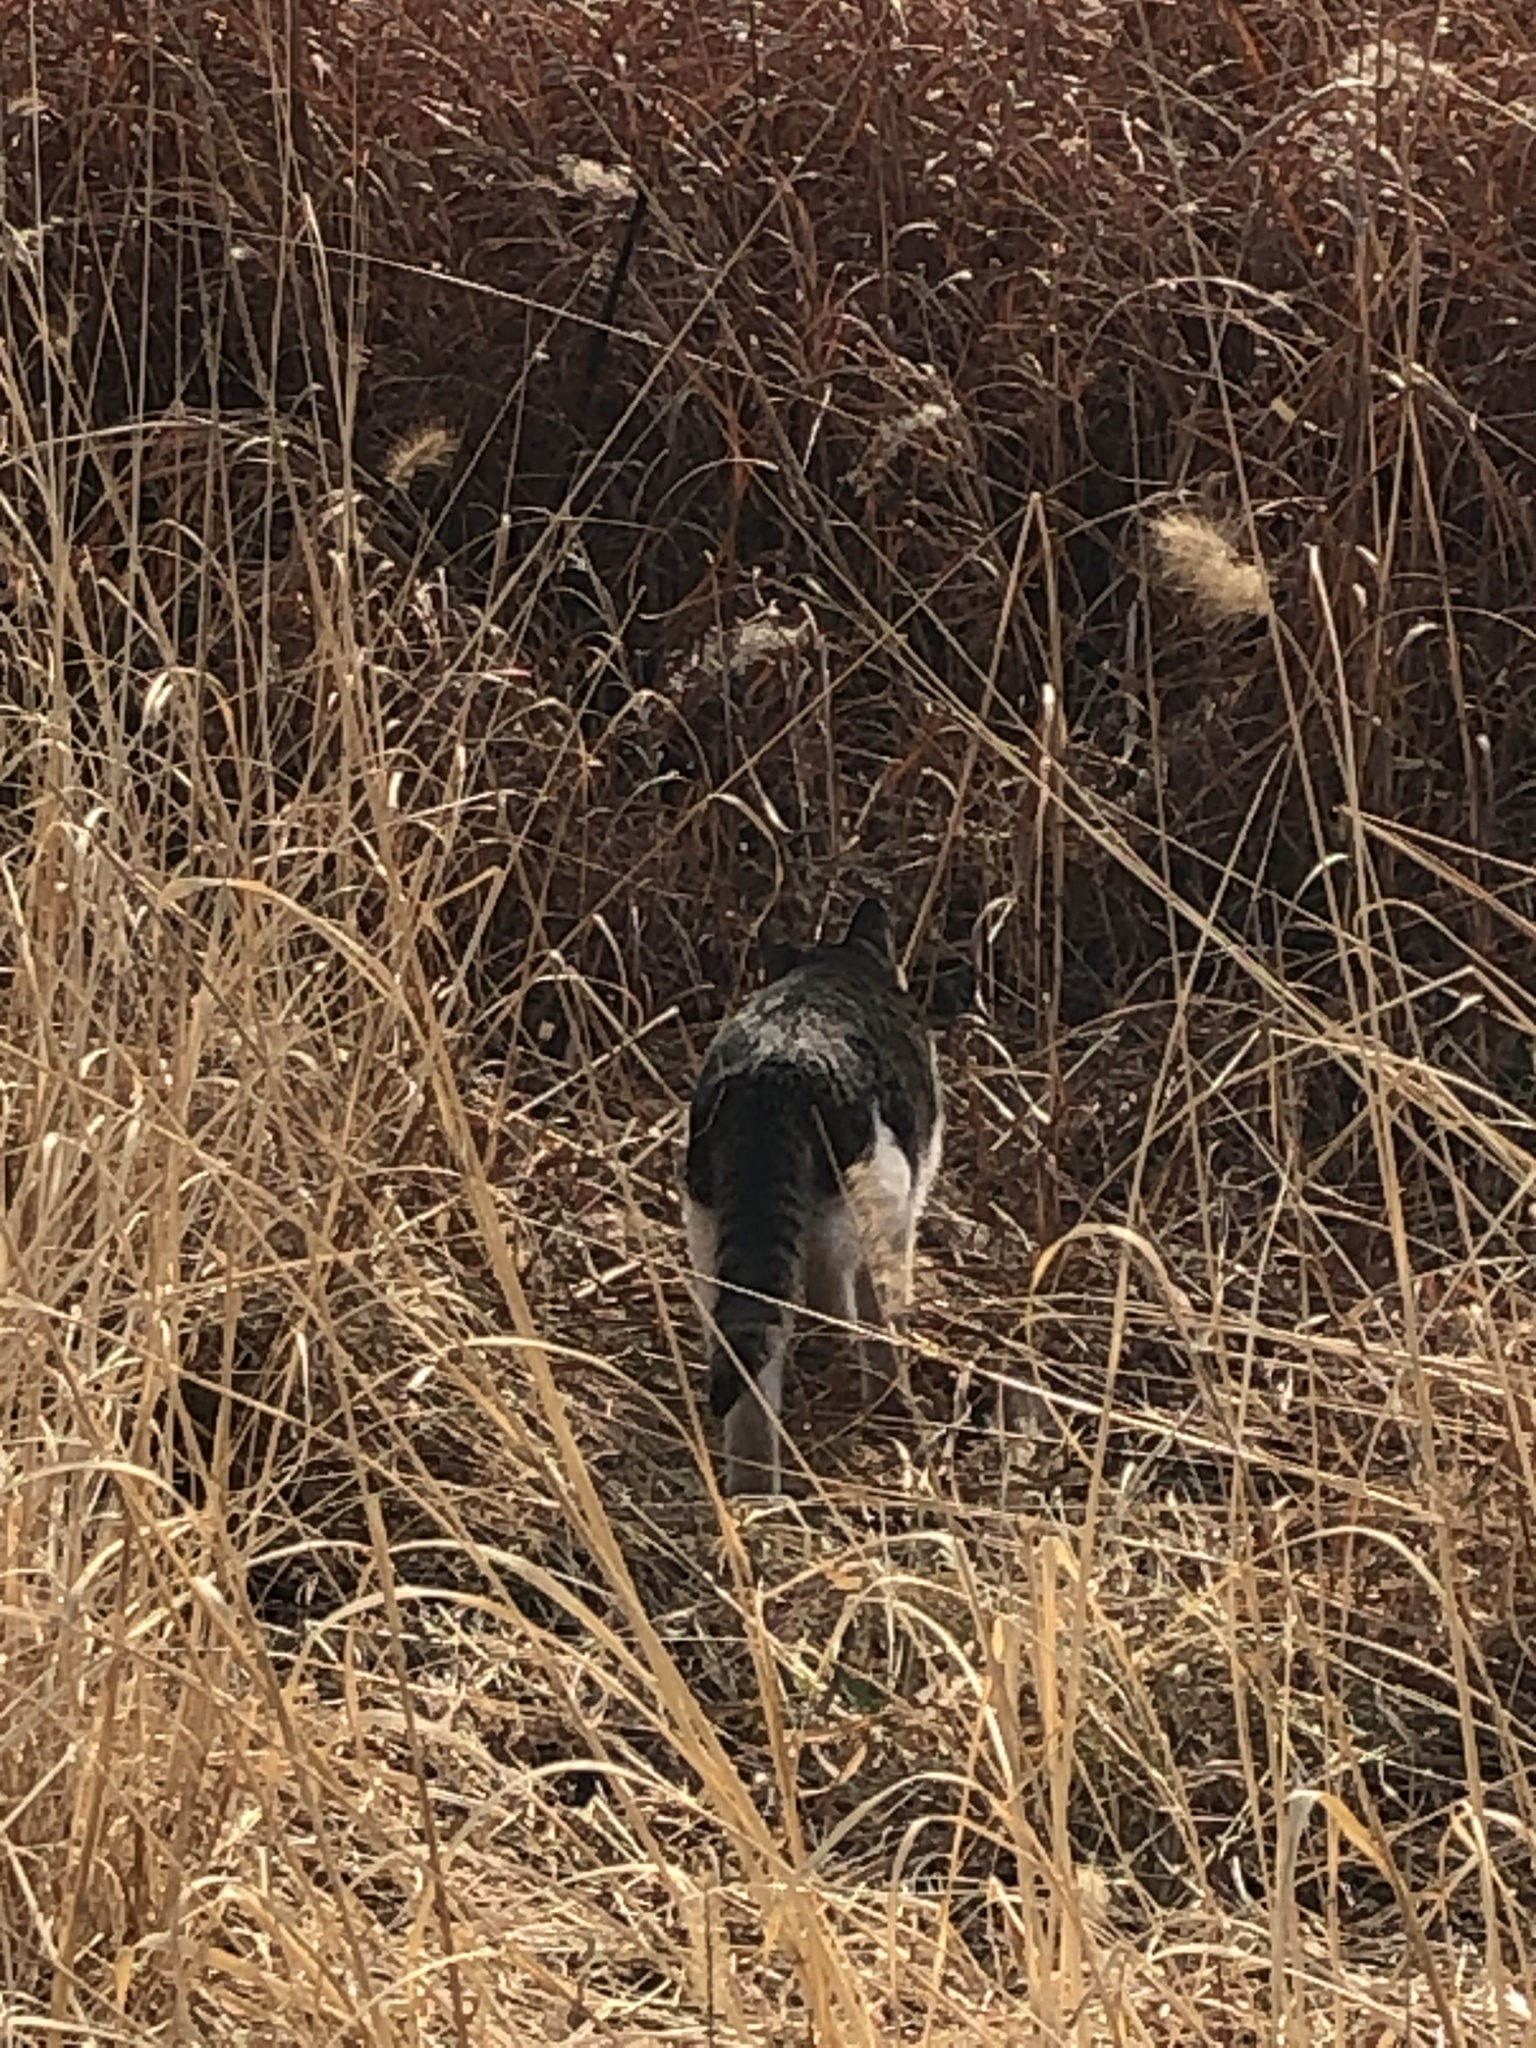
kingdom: Animalia
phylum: Chordata
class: Mammalia
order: Carnivora
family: Felidae
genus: Felis
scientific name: Felis catus
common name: Domestic cat
